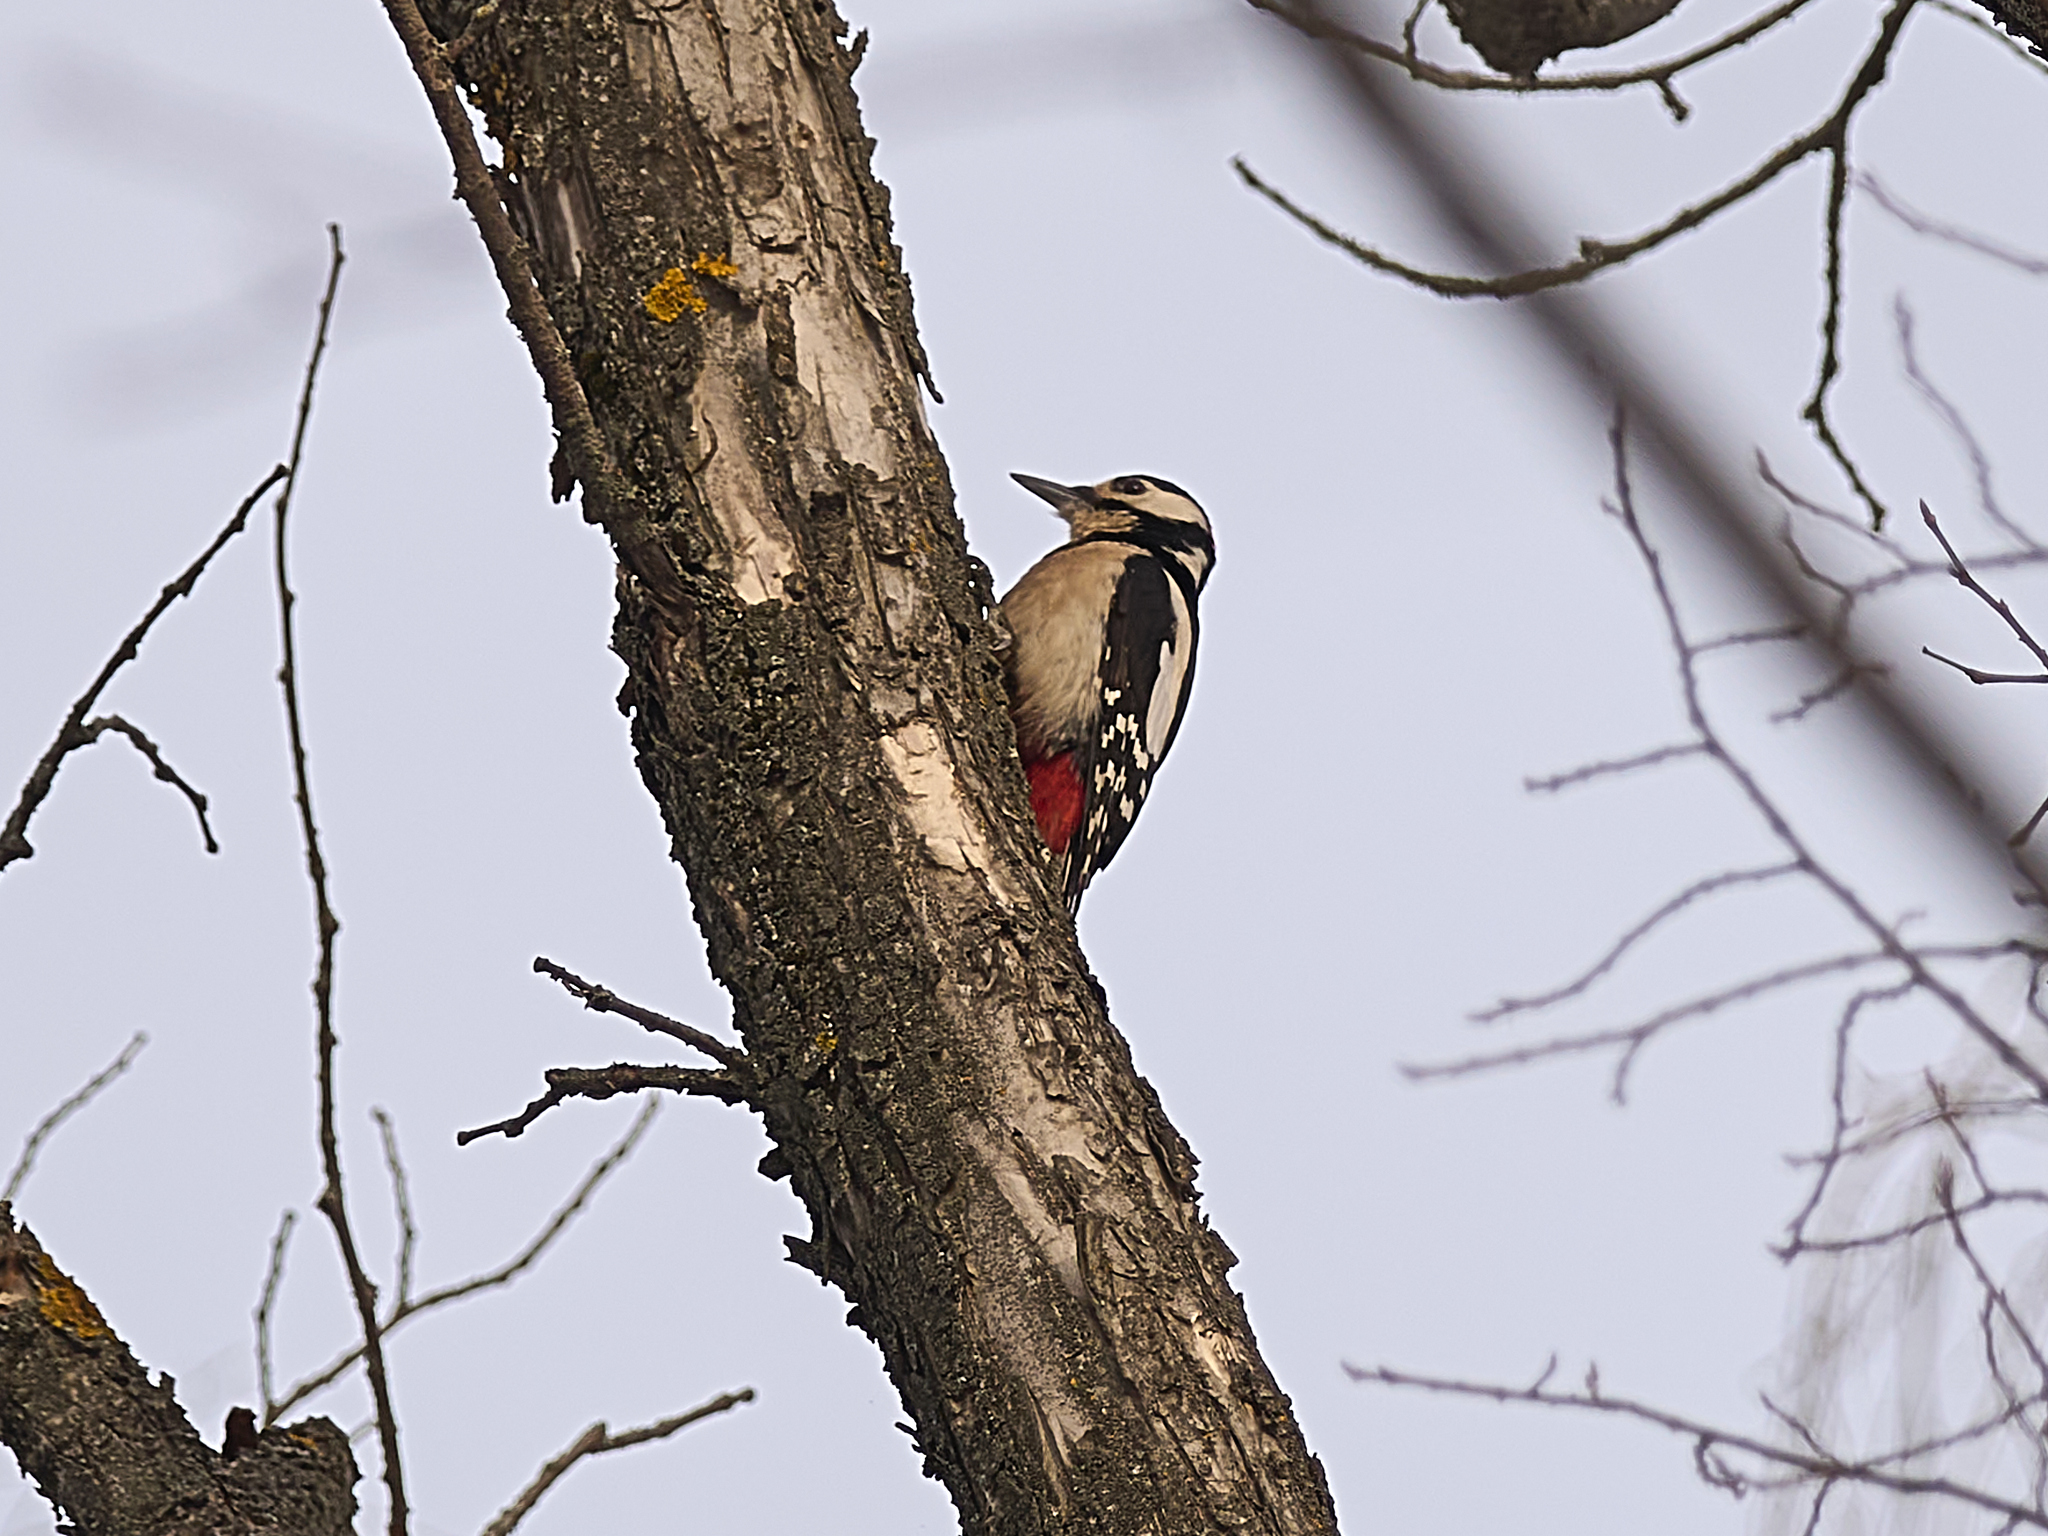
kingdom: Animalia
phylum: Chordata
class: Aves
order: Piciformes
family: Picidae
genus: Dendrocopos
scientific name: Dendrocopos major
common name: Great spotted woodpecker
